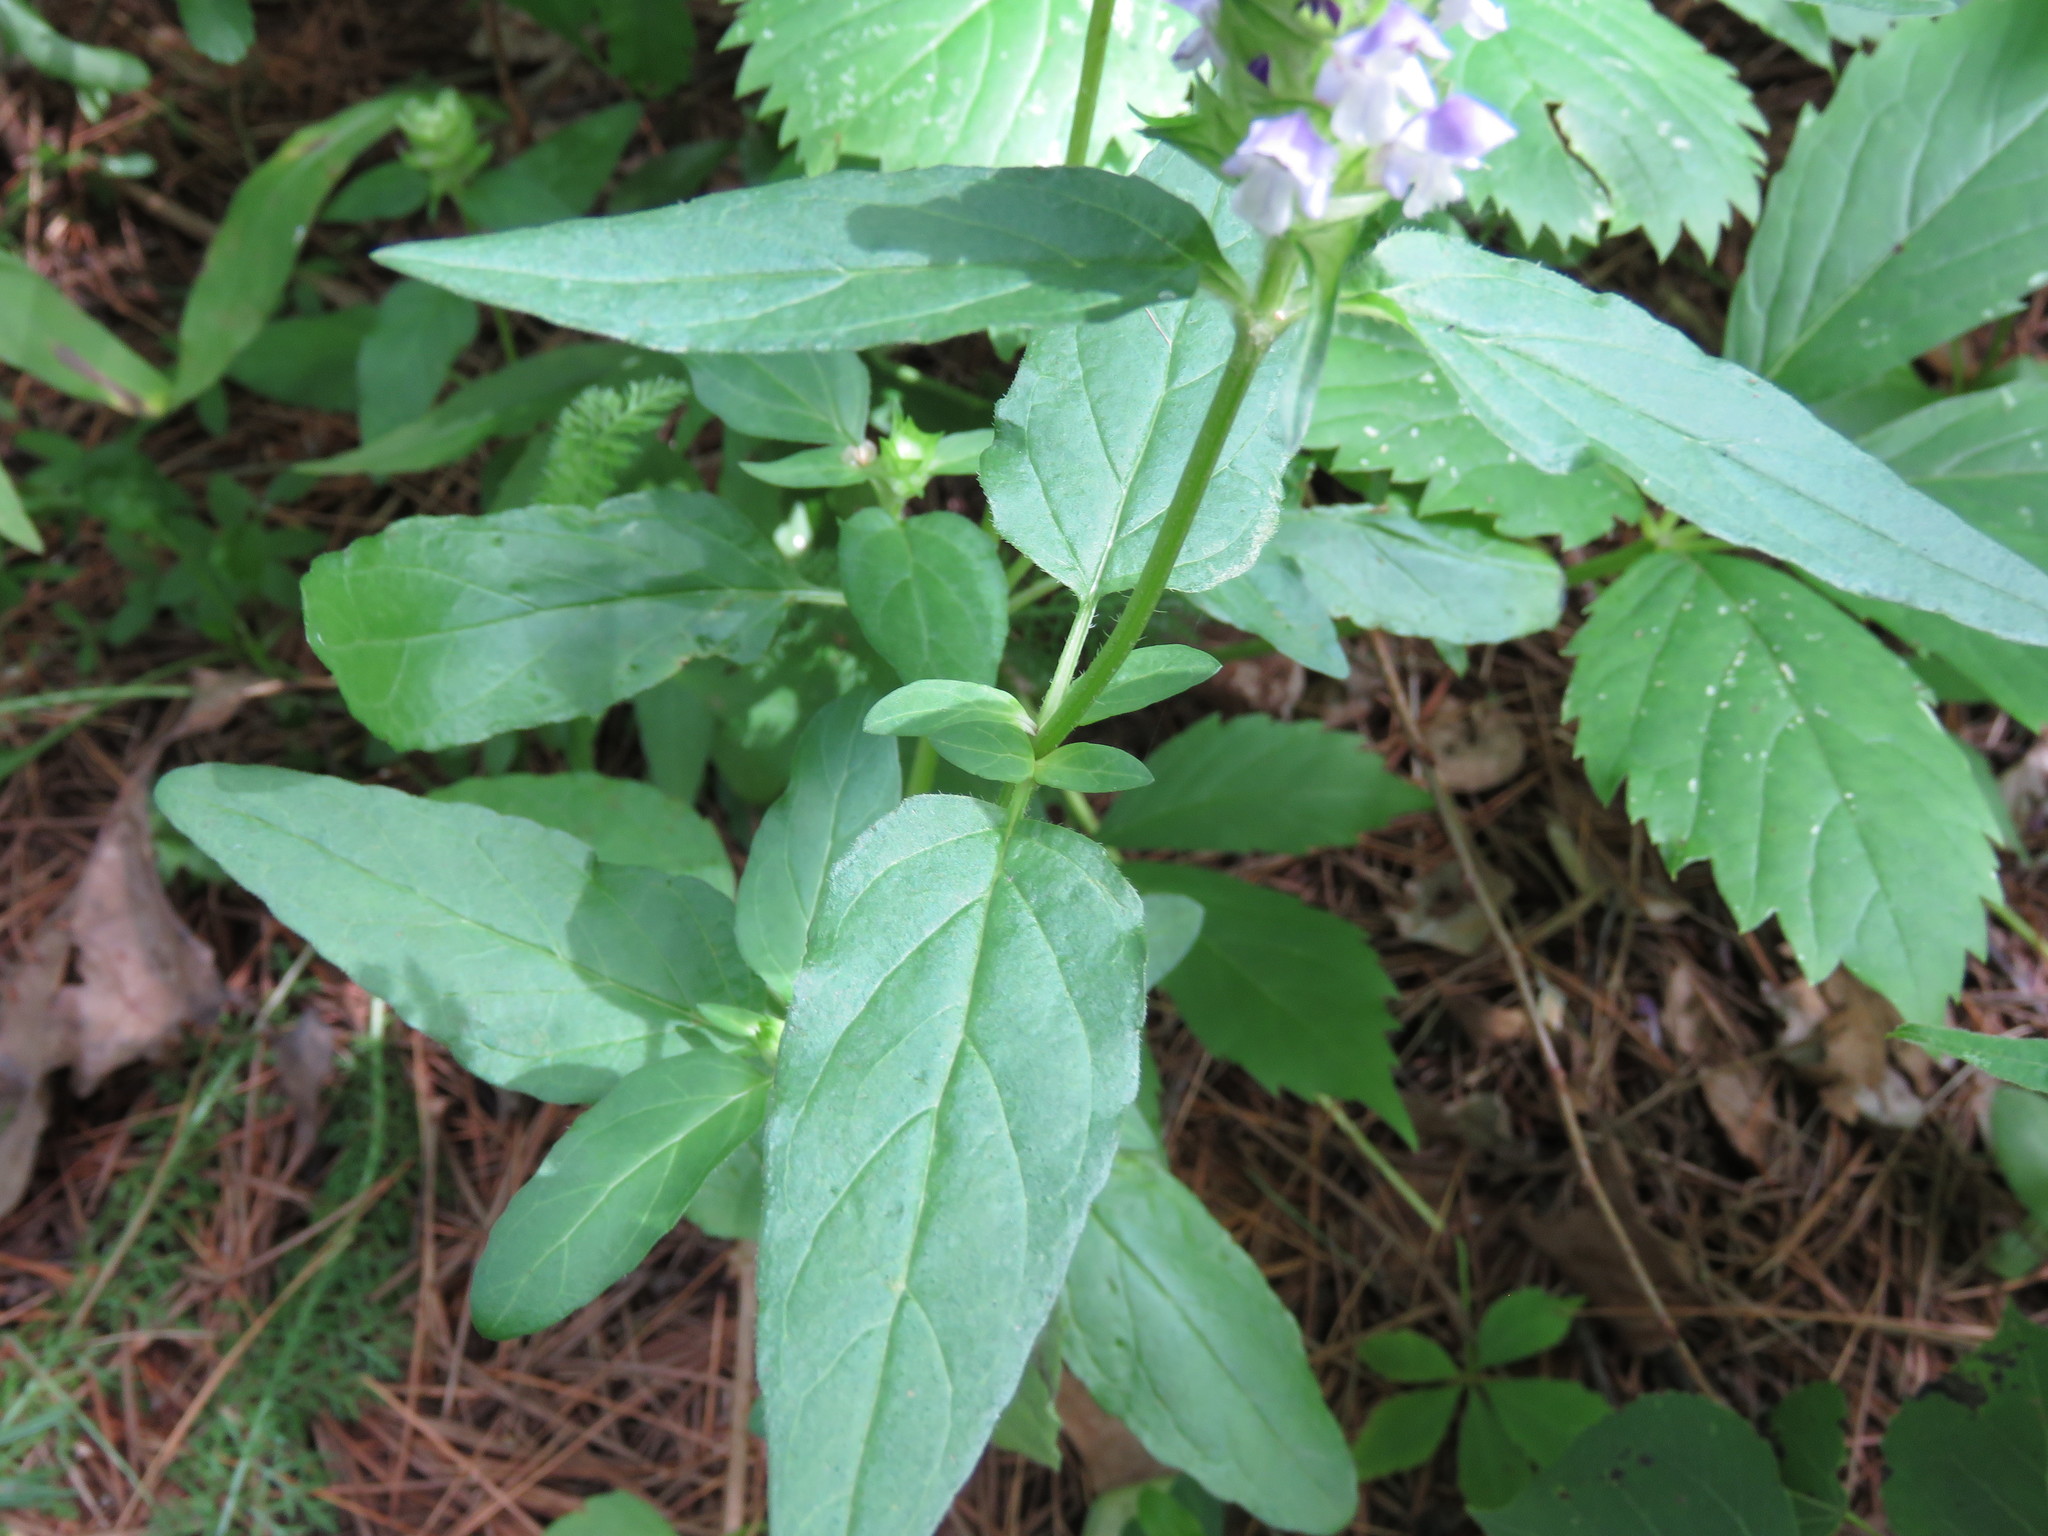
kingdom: Plantae
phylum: Tracheophyta
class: Magnoliopsida
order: Lamiales
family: Lamiaceae
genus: Prunella
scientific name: Prunella vulgaris
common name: Heal-all
